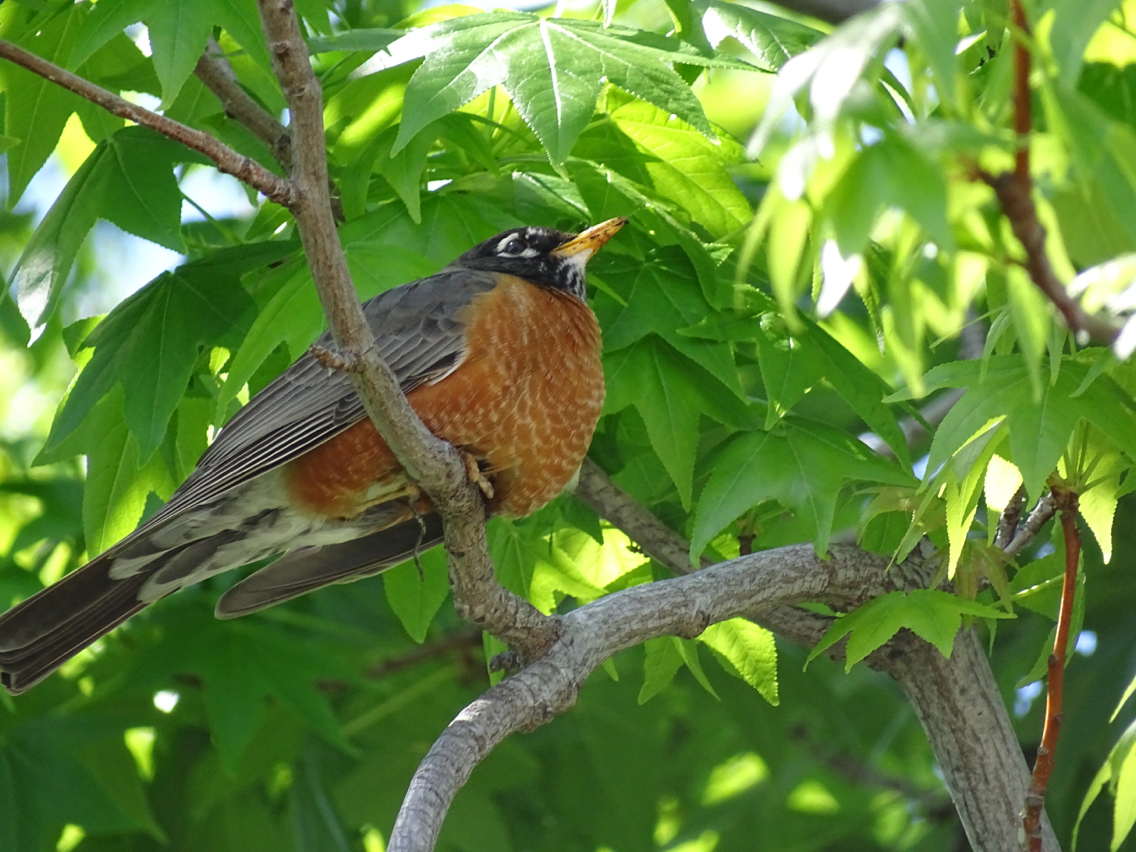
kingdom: Animalia
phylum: Chordata
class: Aves
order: Passeriformes
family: Turdidae
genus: Turdus
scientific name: Turdus migratorius
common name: American robin
